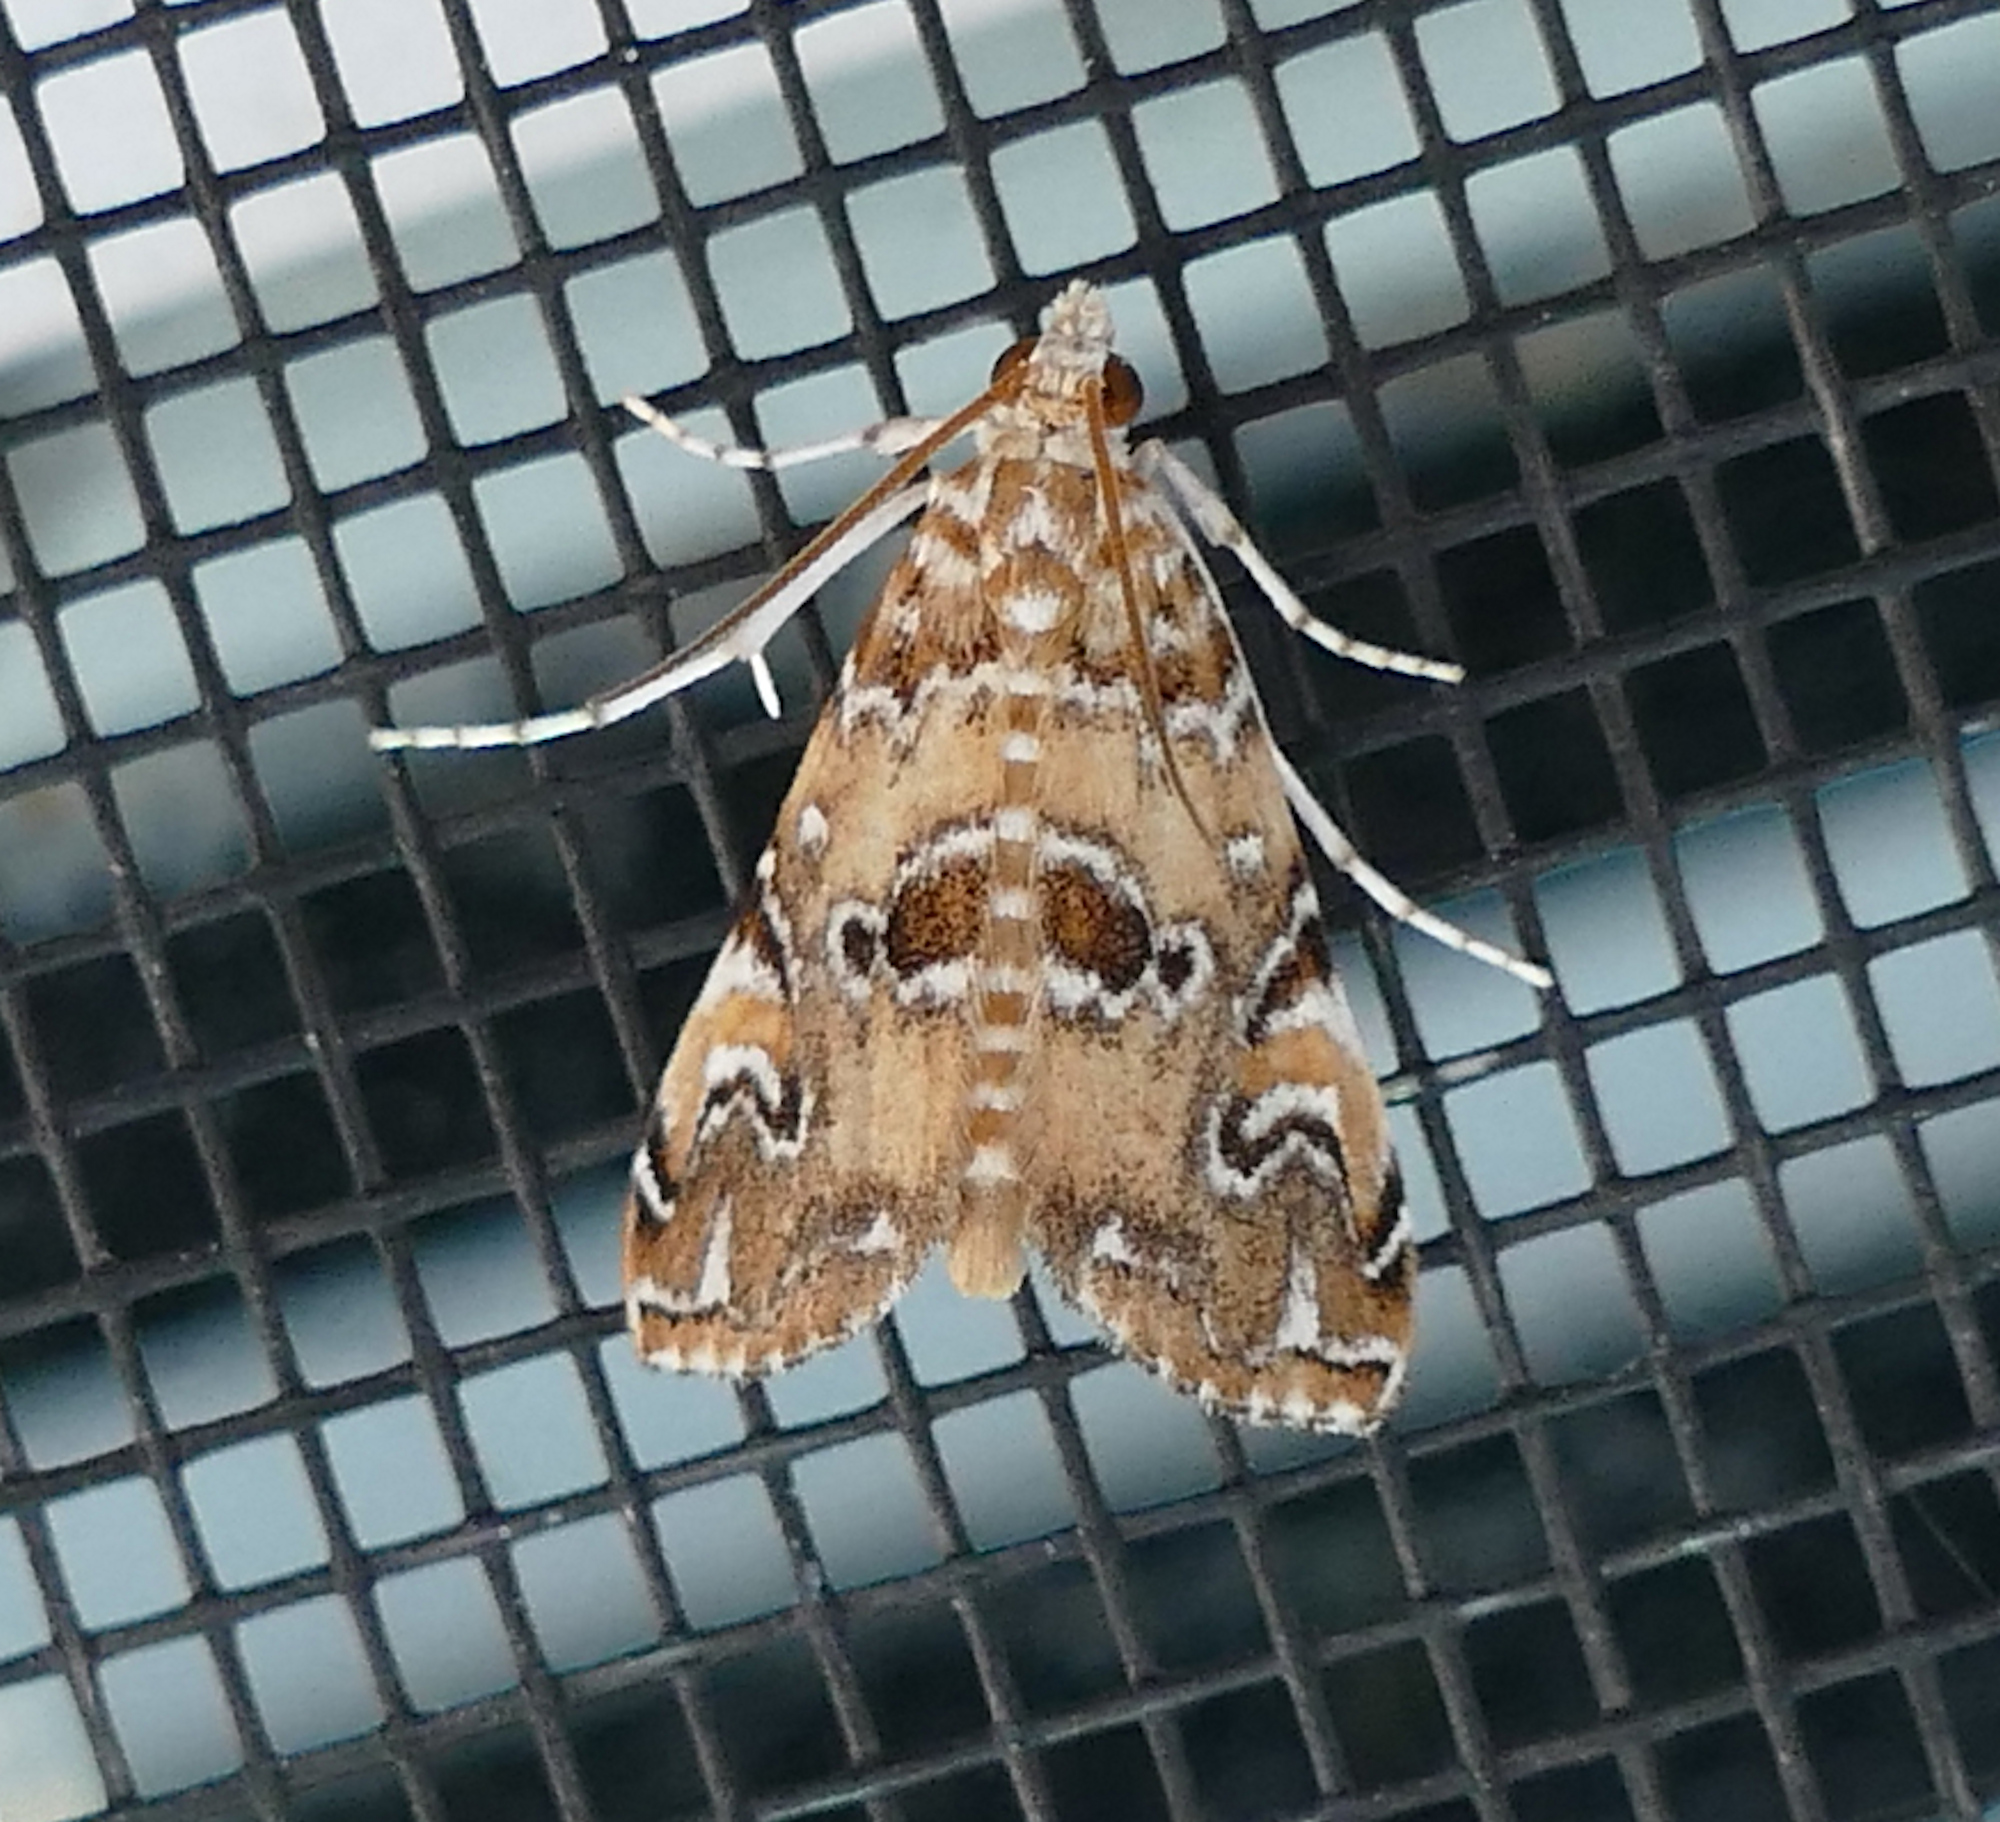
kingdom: Animalia
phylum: Arthropoda
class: Insecta
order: Lepidoptera
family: Crambidae
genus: Elophila
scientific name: Elophila gyralis
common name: Waterlily borer moth
